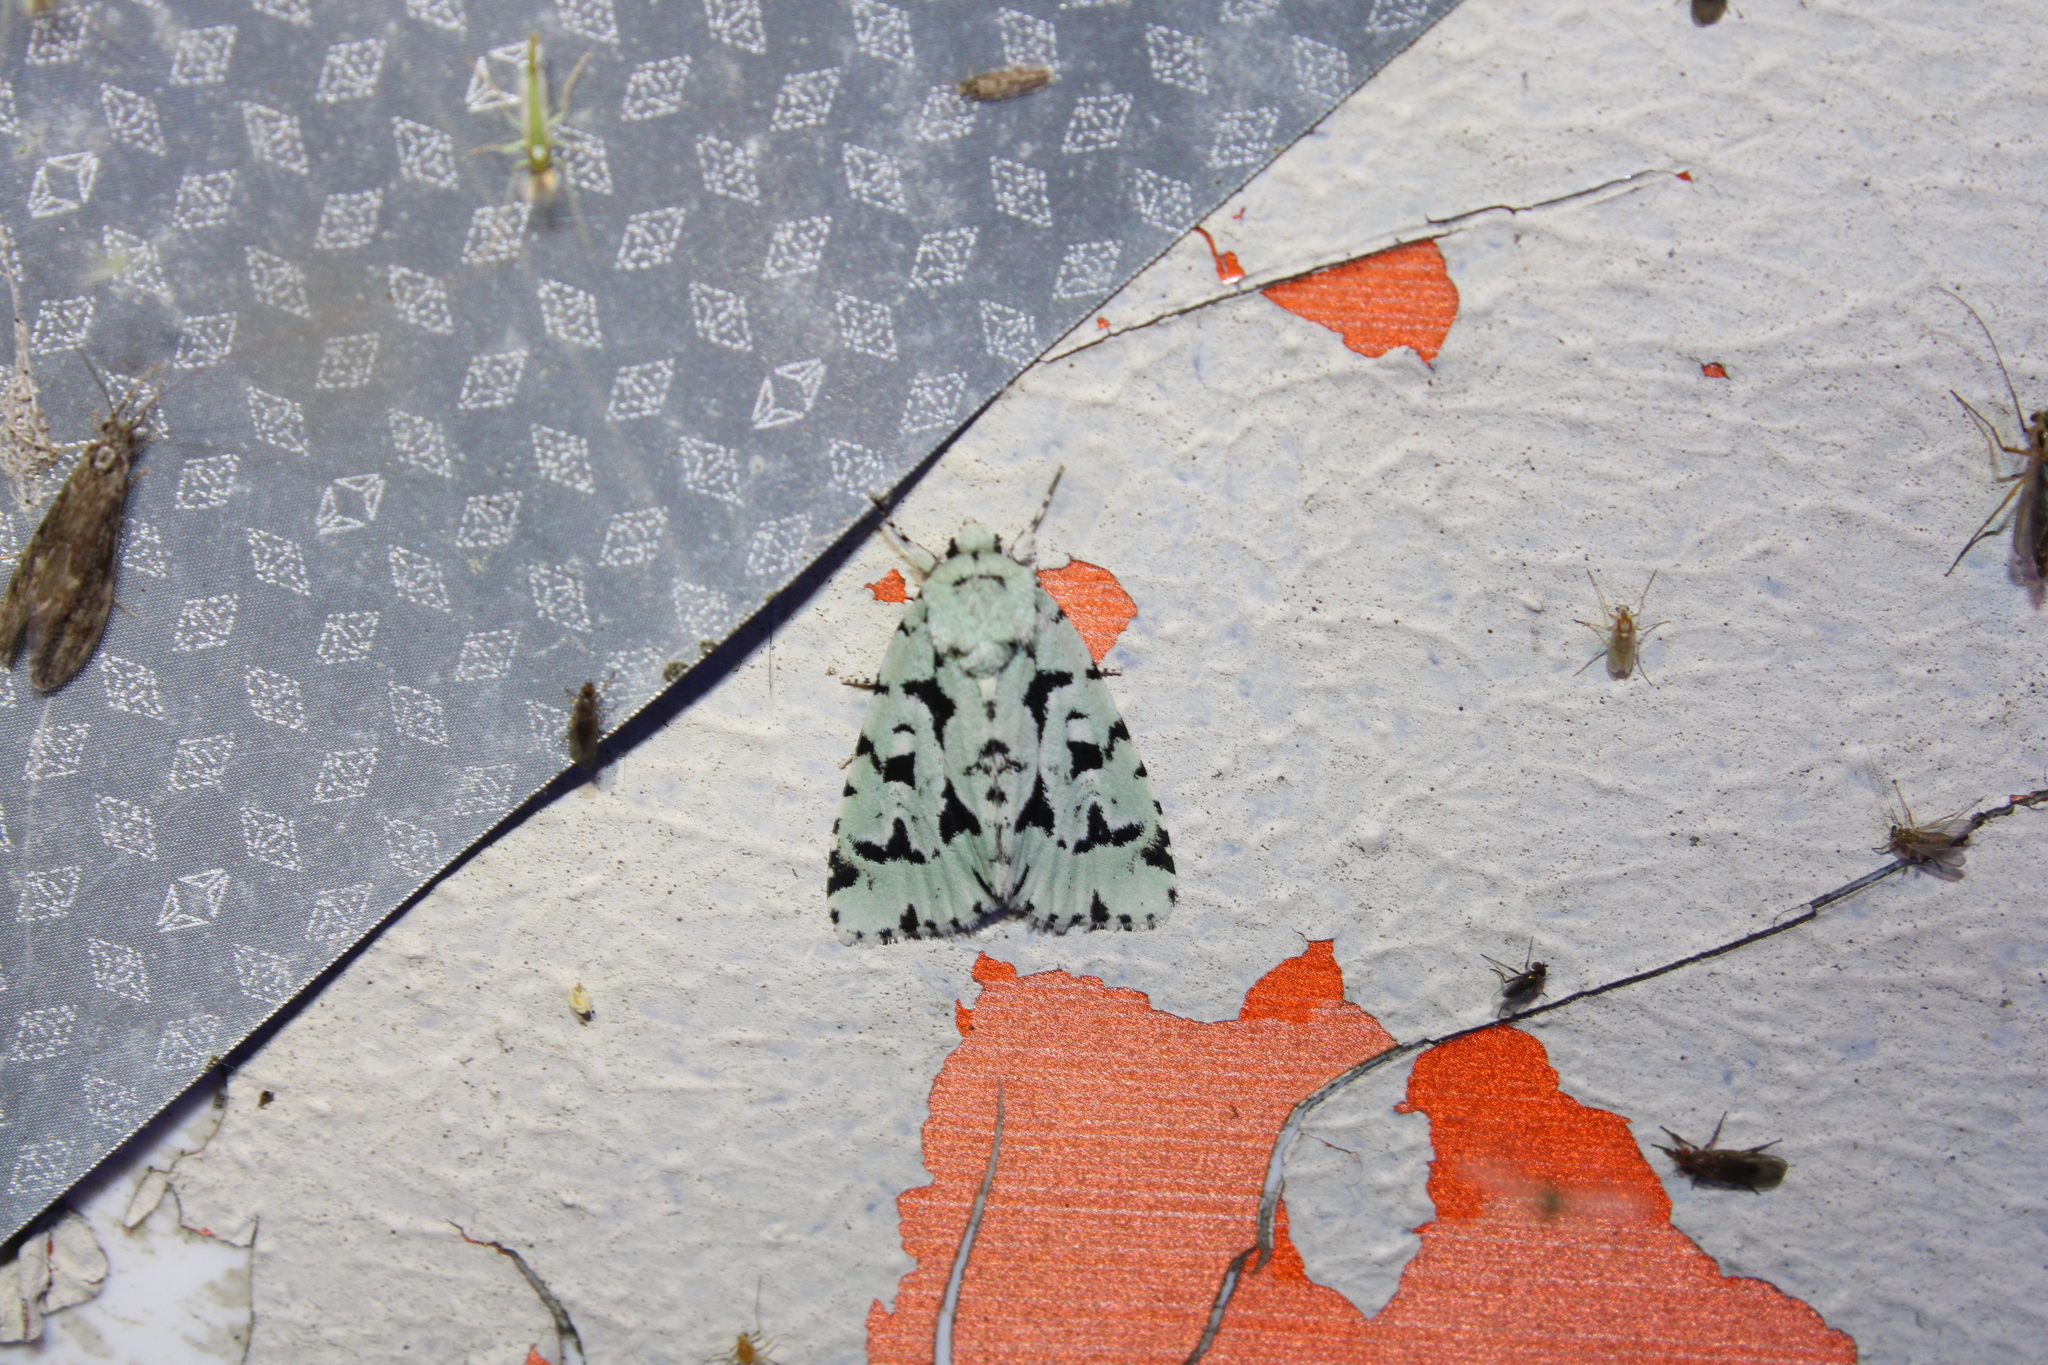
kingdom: Animalia
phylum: Arthropoda
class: Insecta
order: Lepidoptera
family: Noctuidae
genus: Acronicta
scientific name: Acronicta fallax
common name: Green marvel
